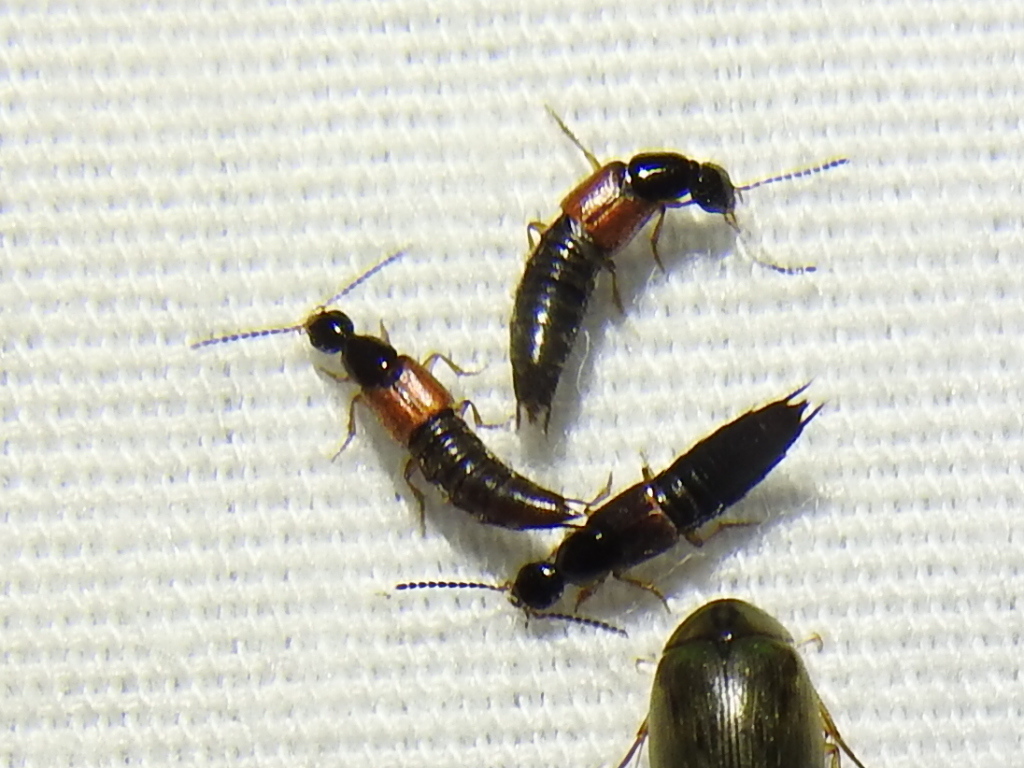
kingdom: Animalia
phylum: Arthropoda
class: Insecta
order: Coleoptera
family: Staphylinidae
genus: Philonthus
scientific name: Philonthus rufulus
